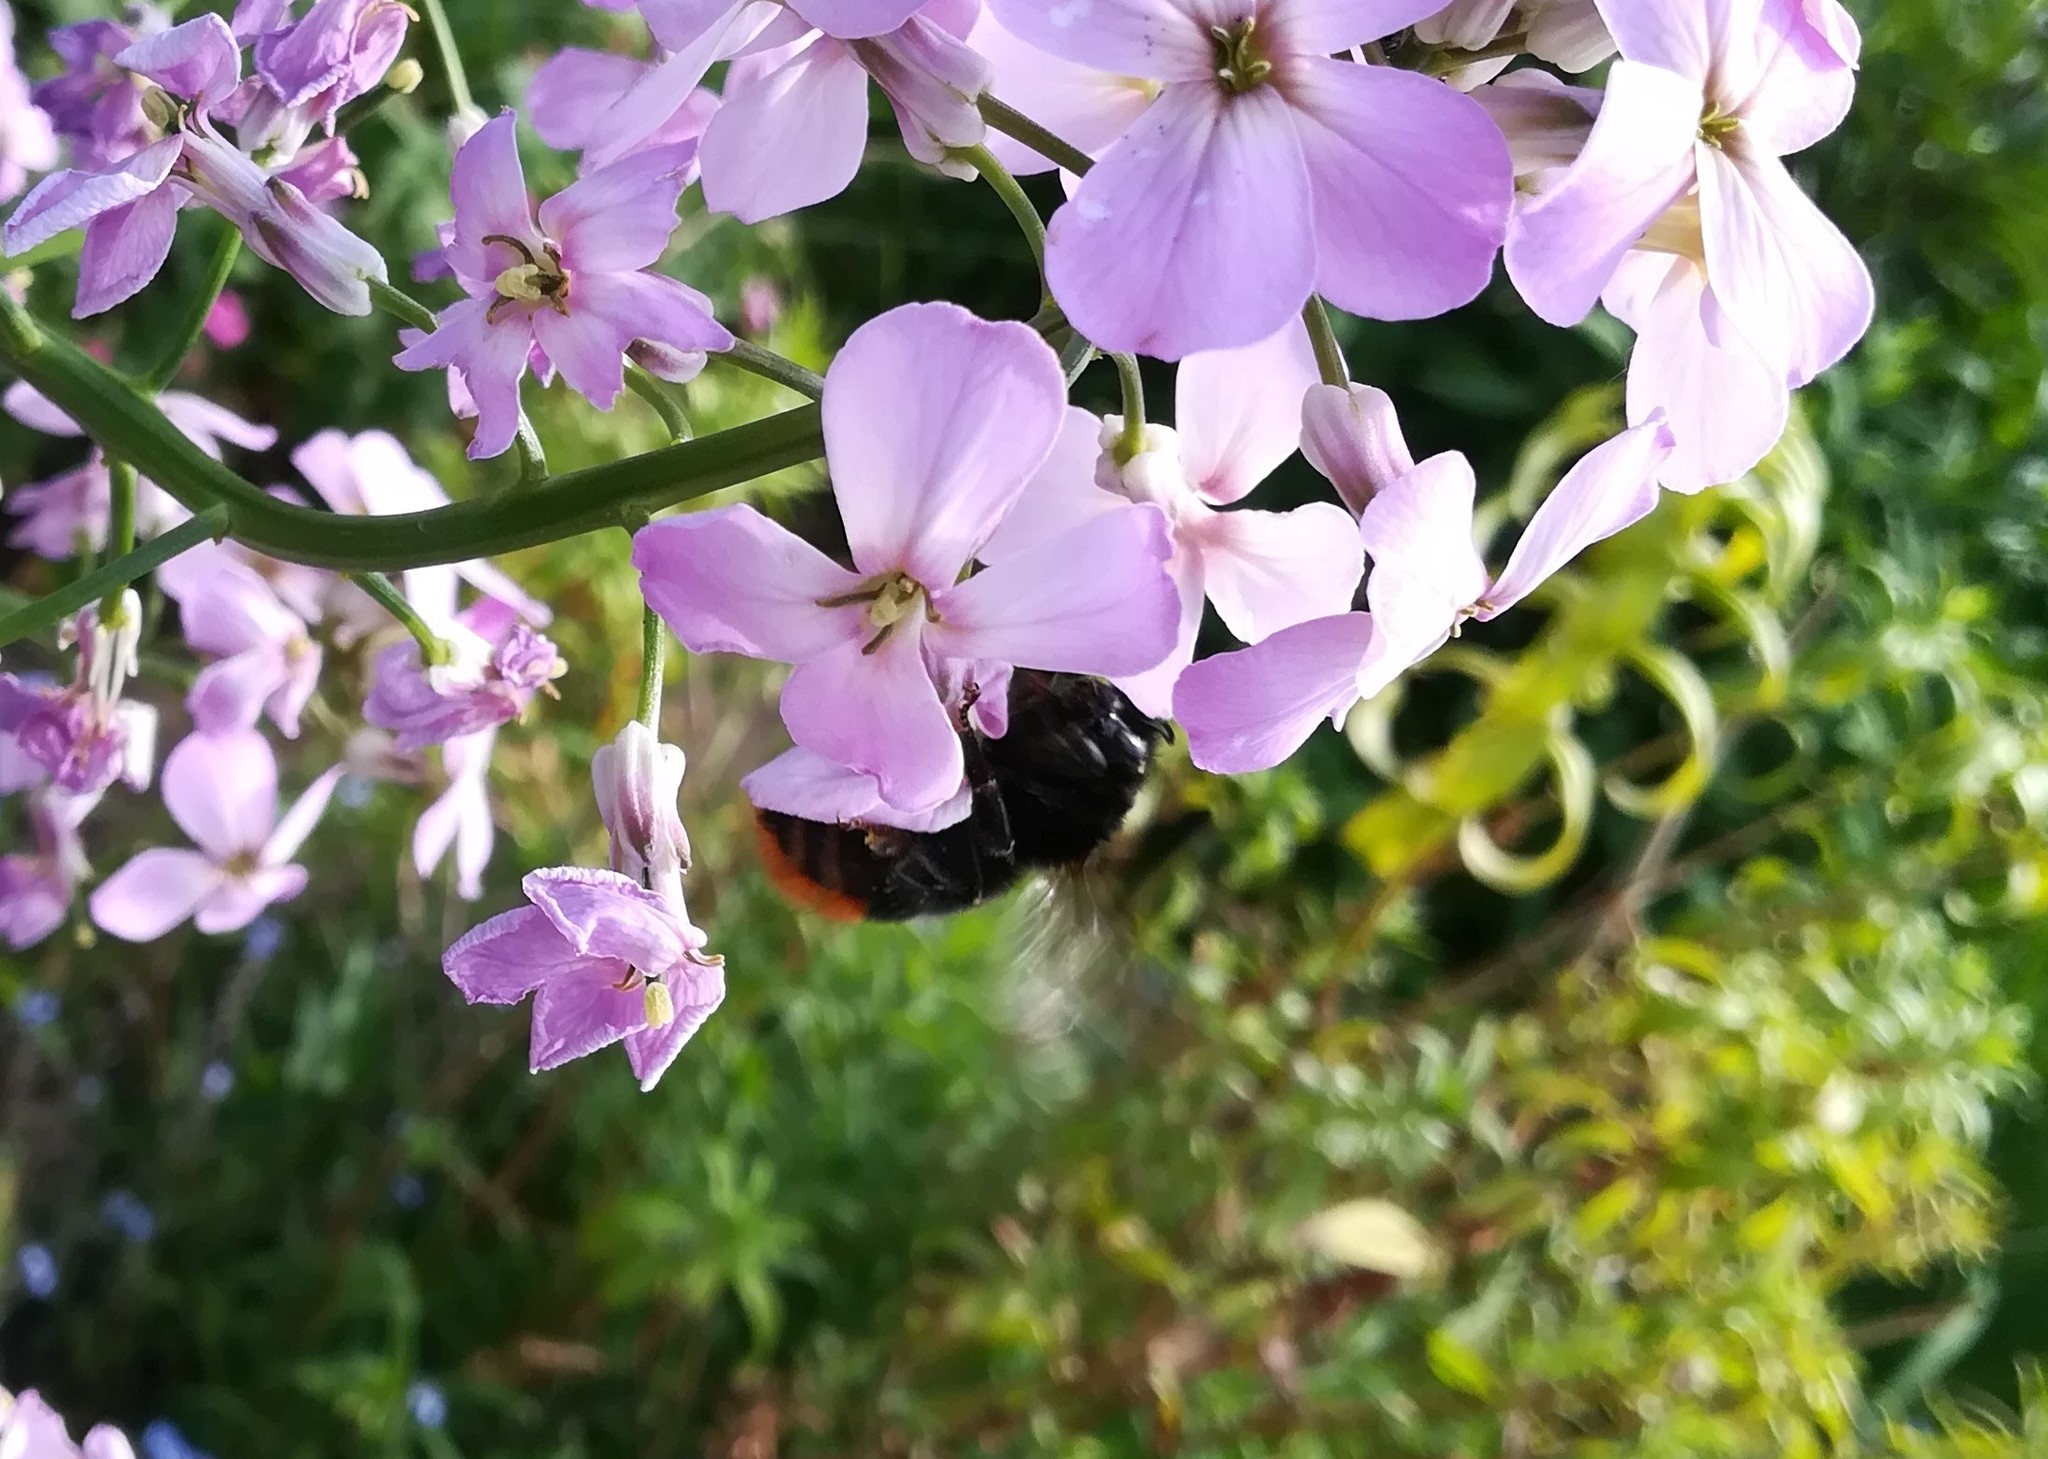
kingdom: Animalia
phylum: Arthropoda
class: Insecta
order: Hymenoptera
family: Apidae
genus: Bombus
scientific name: Bombus lapidarius
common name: Large red-tailed humble-bee
